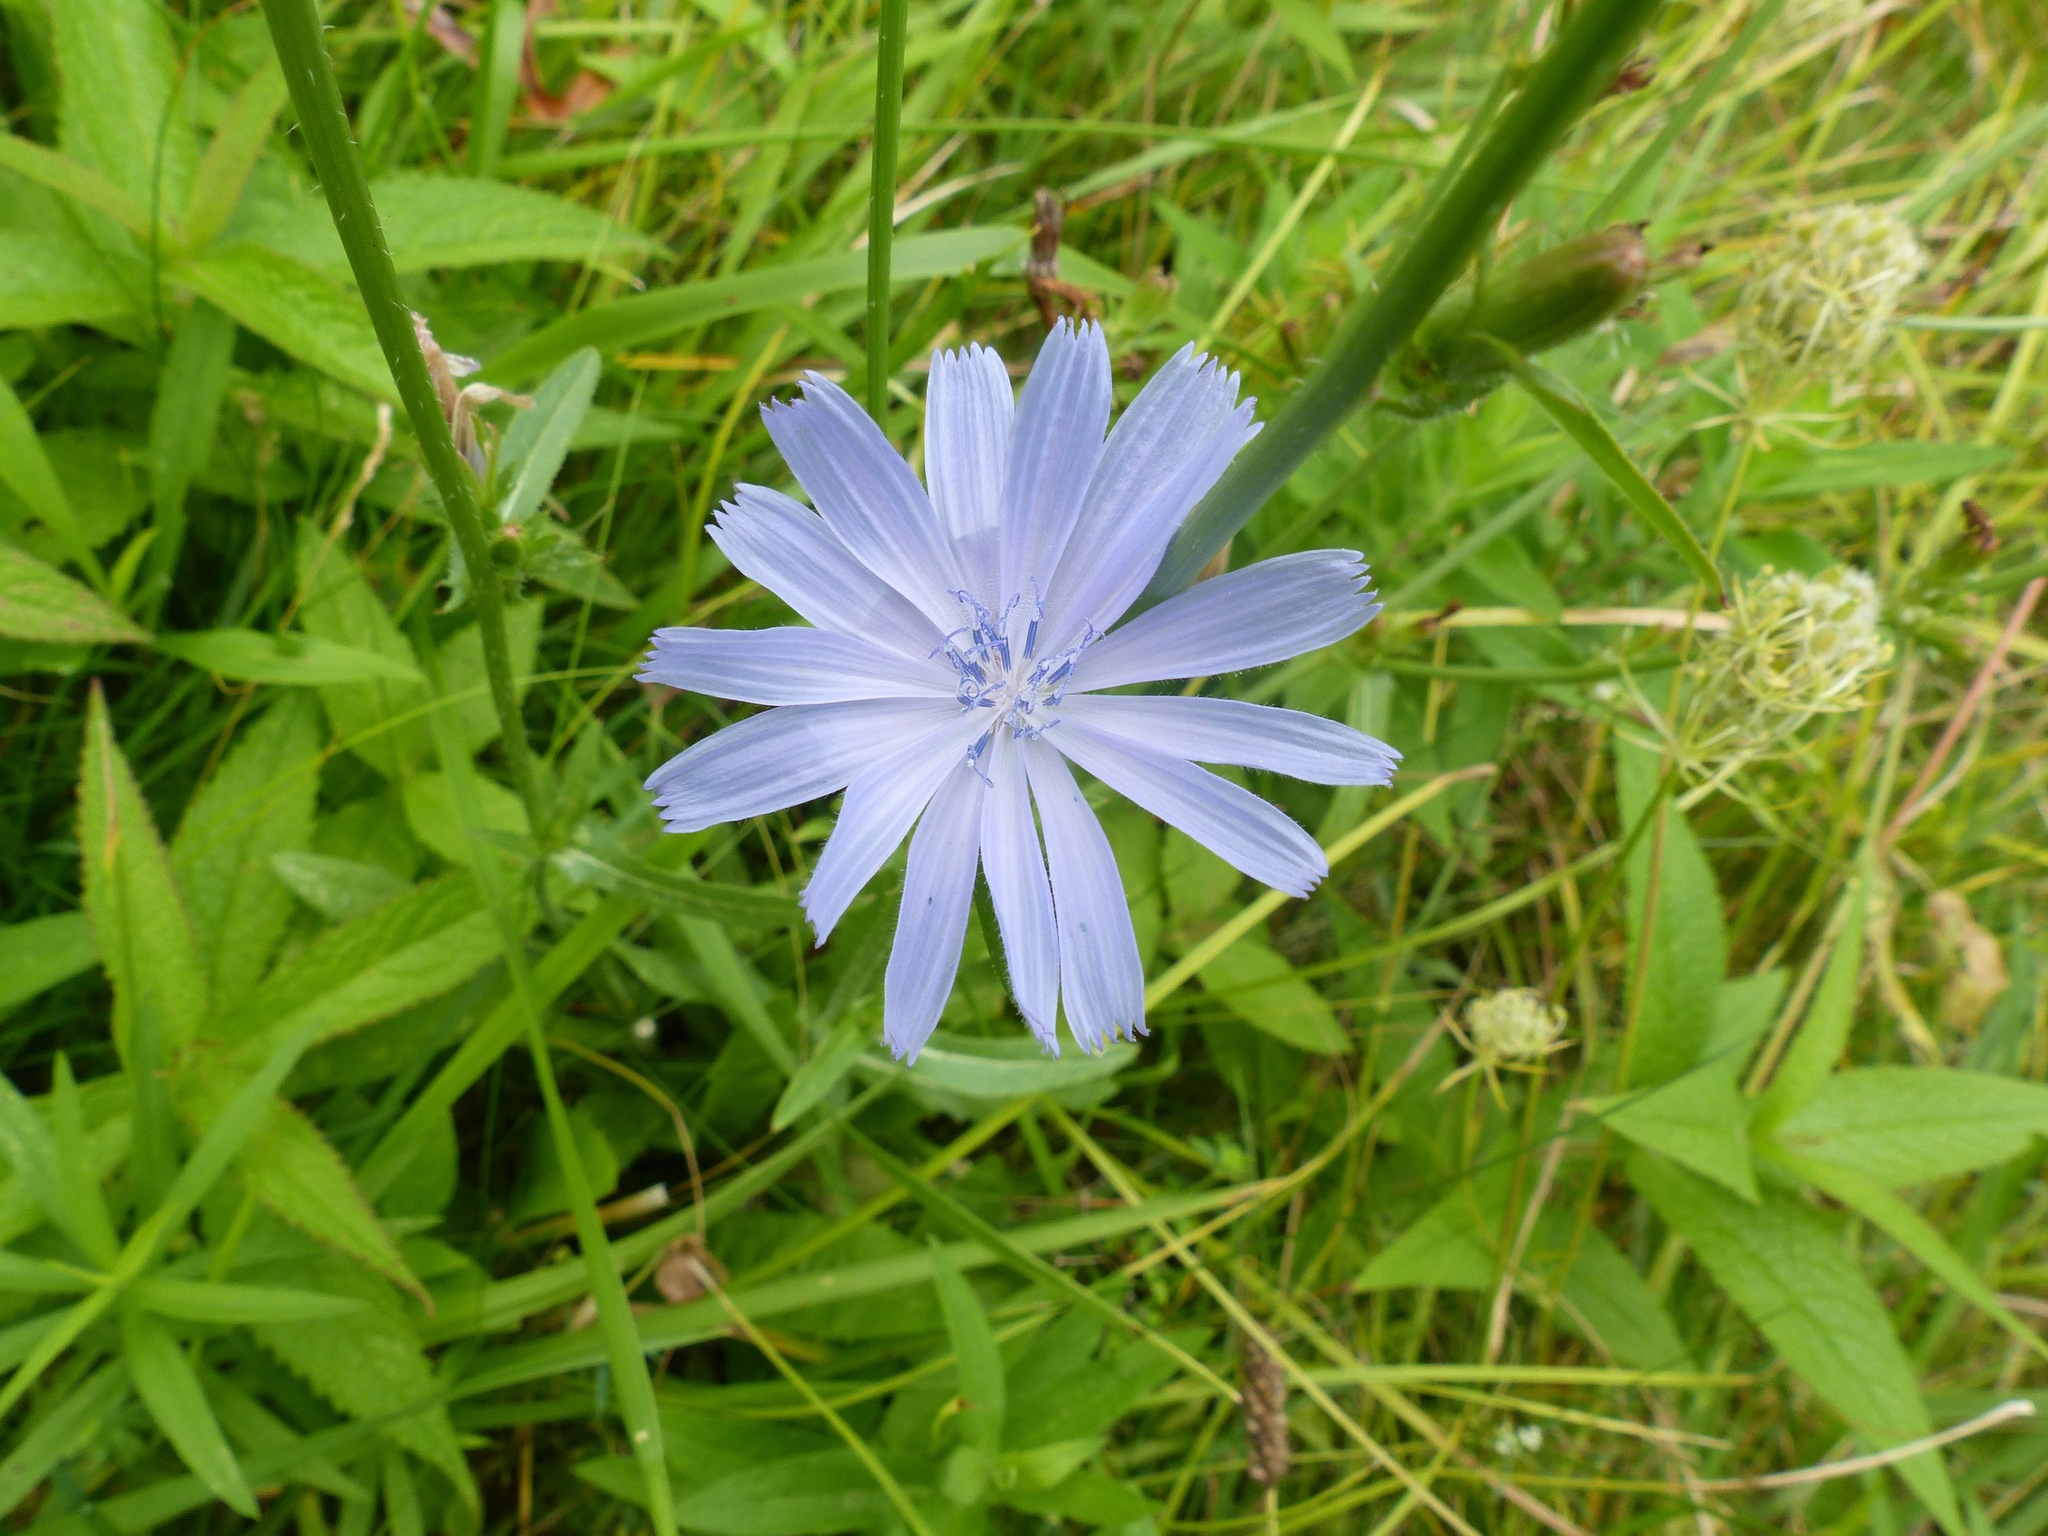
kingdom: Plantae
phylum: Tracheophyta
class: Magnoliopsida
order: Asterales
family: Asteraceae
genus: Cichorium
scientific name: Cichorium intybus
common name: Chicory
